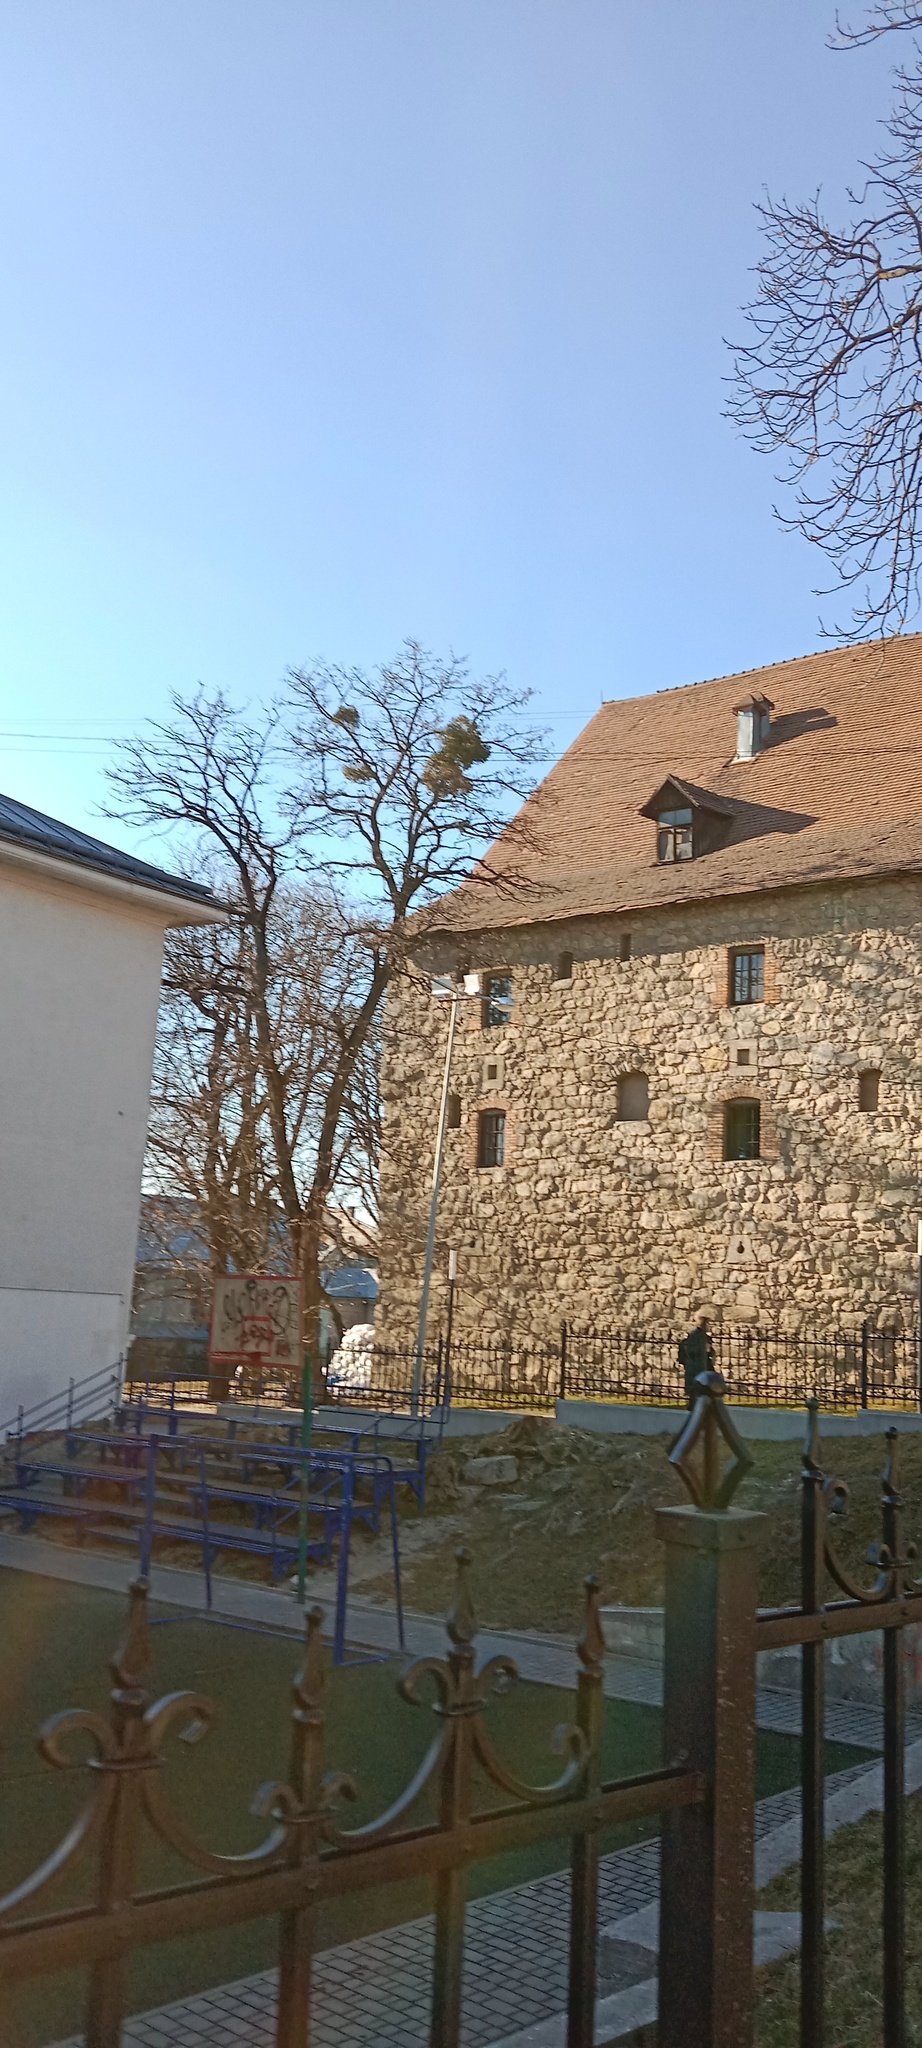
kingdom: Plantae
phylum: Tracheophyta
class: Magnoliopsida
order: Santalales
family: Viscaceae
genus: Viscum
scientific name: Viscum album
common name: Mistletoe
